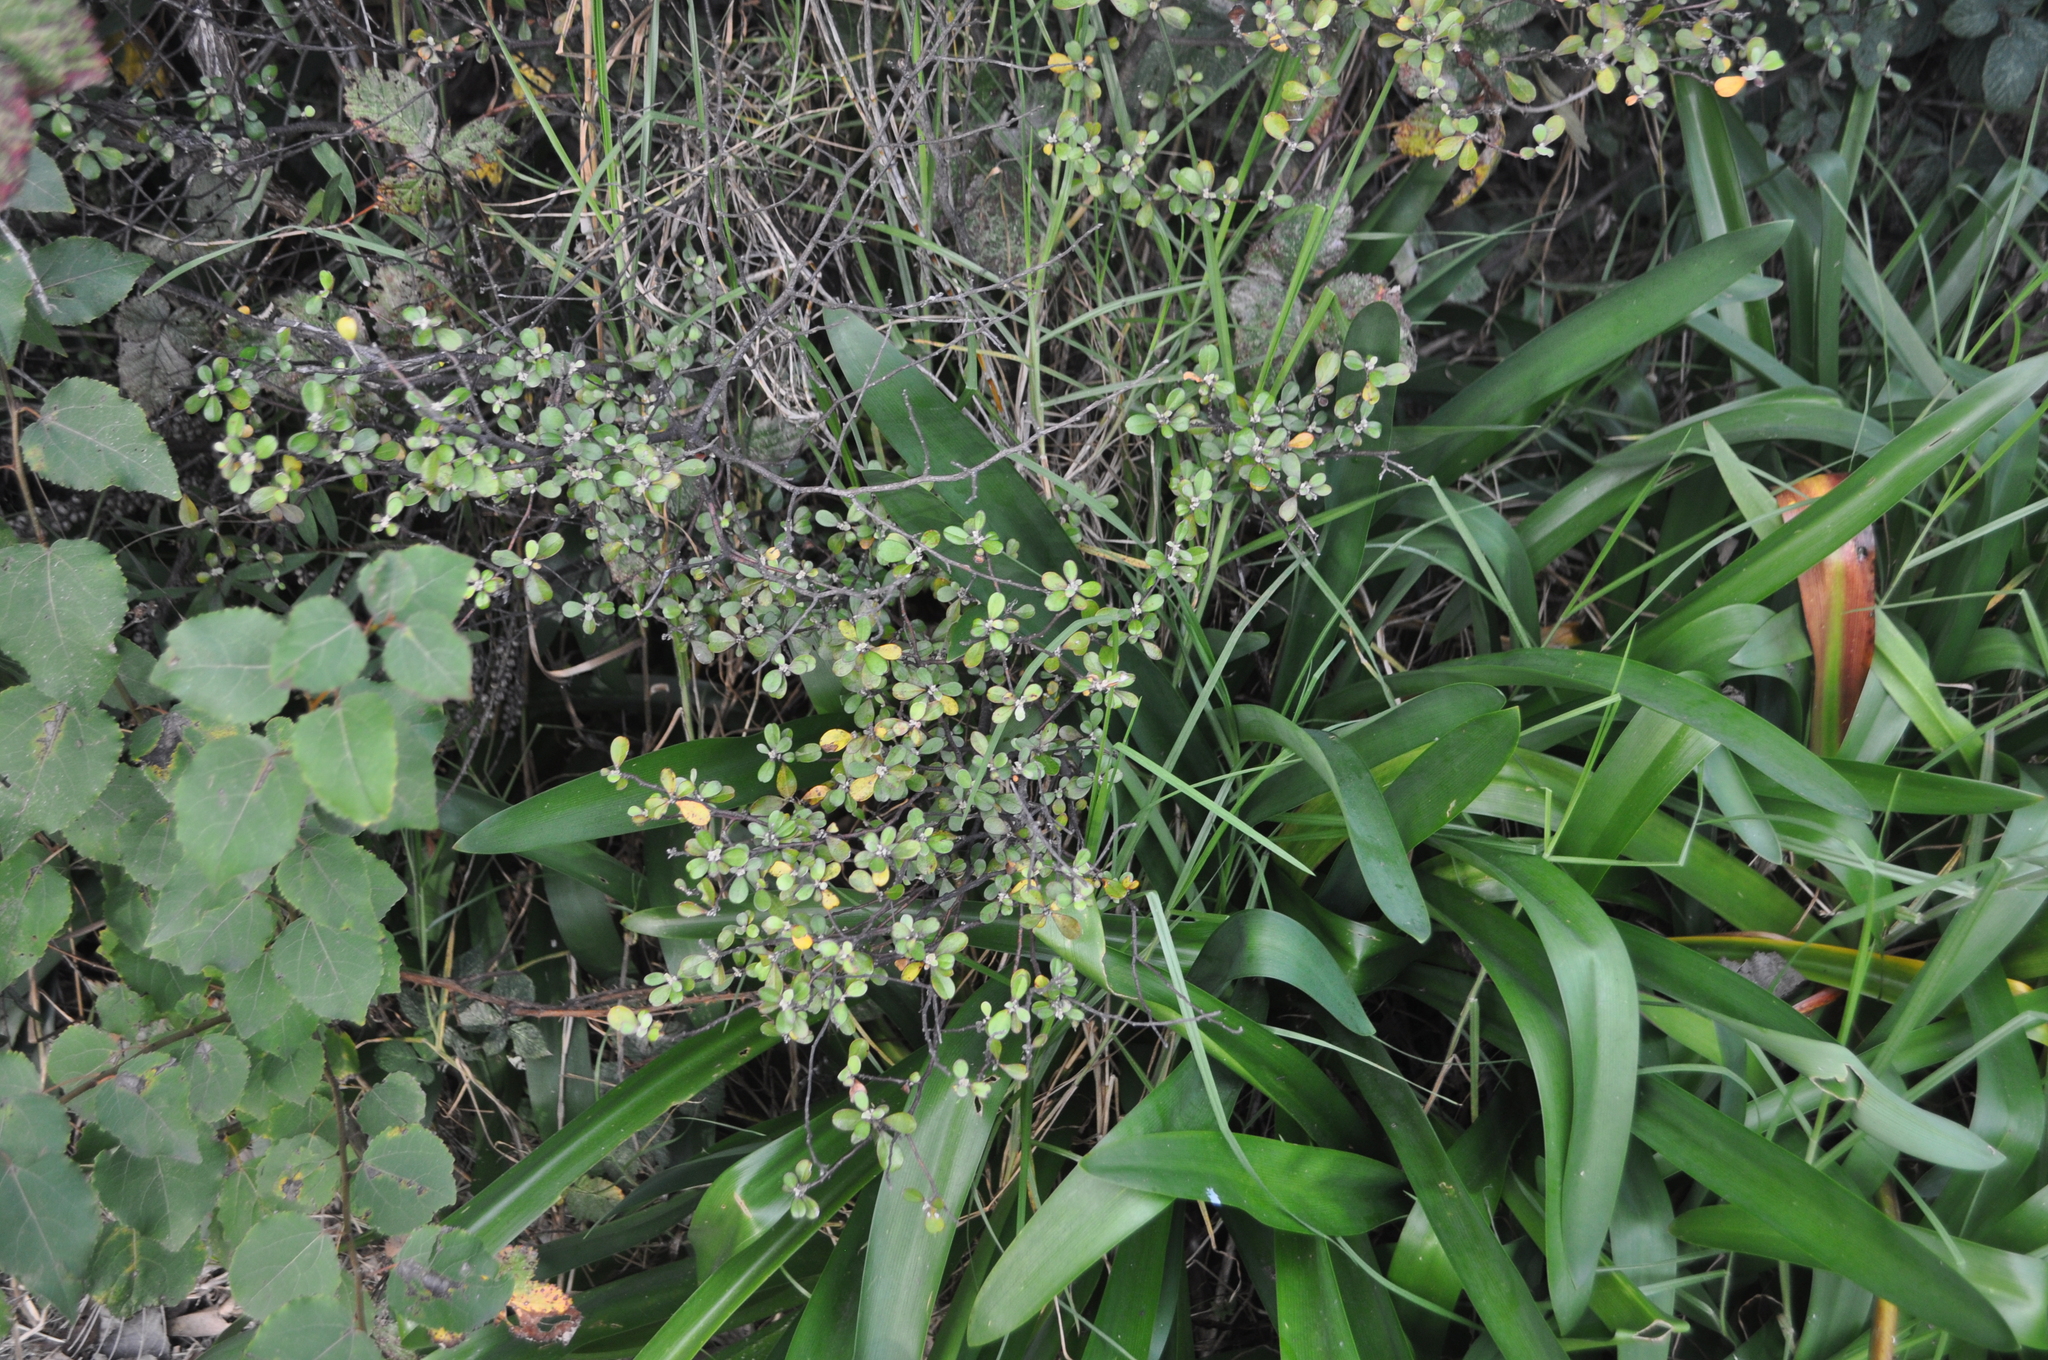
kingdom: Plantae
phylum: Tracheophyta
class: Magnoliopsida
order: Asterales
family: Argophyllaceae
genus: Corokia
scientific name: Corokia virgata
